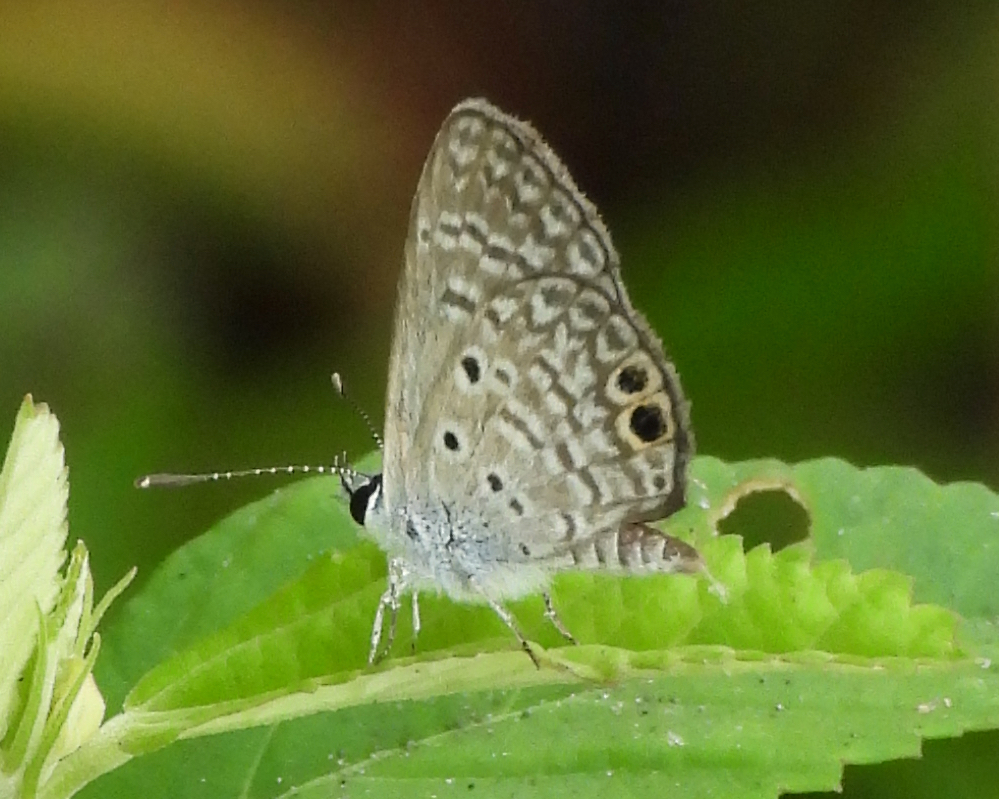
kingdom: Animalia
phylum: Arthropoda
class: Insecta
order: Lepidoptera
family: Lycaenidae
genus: Hemiargus
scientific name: Hemiargus ceraunus
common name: Ceraunus blue
